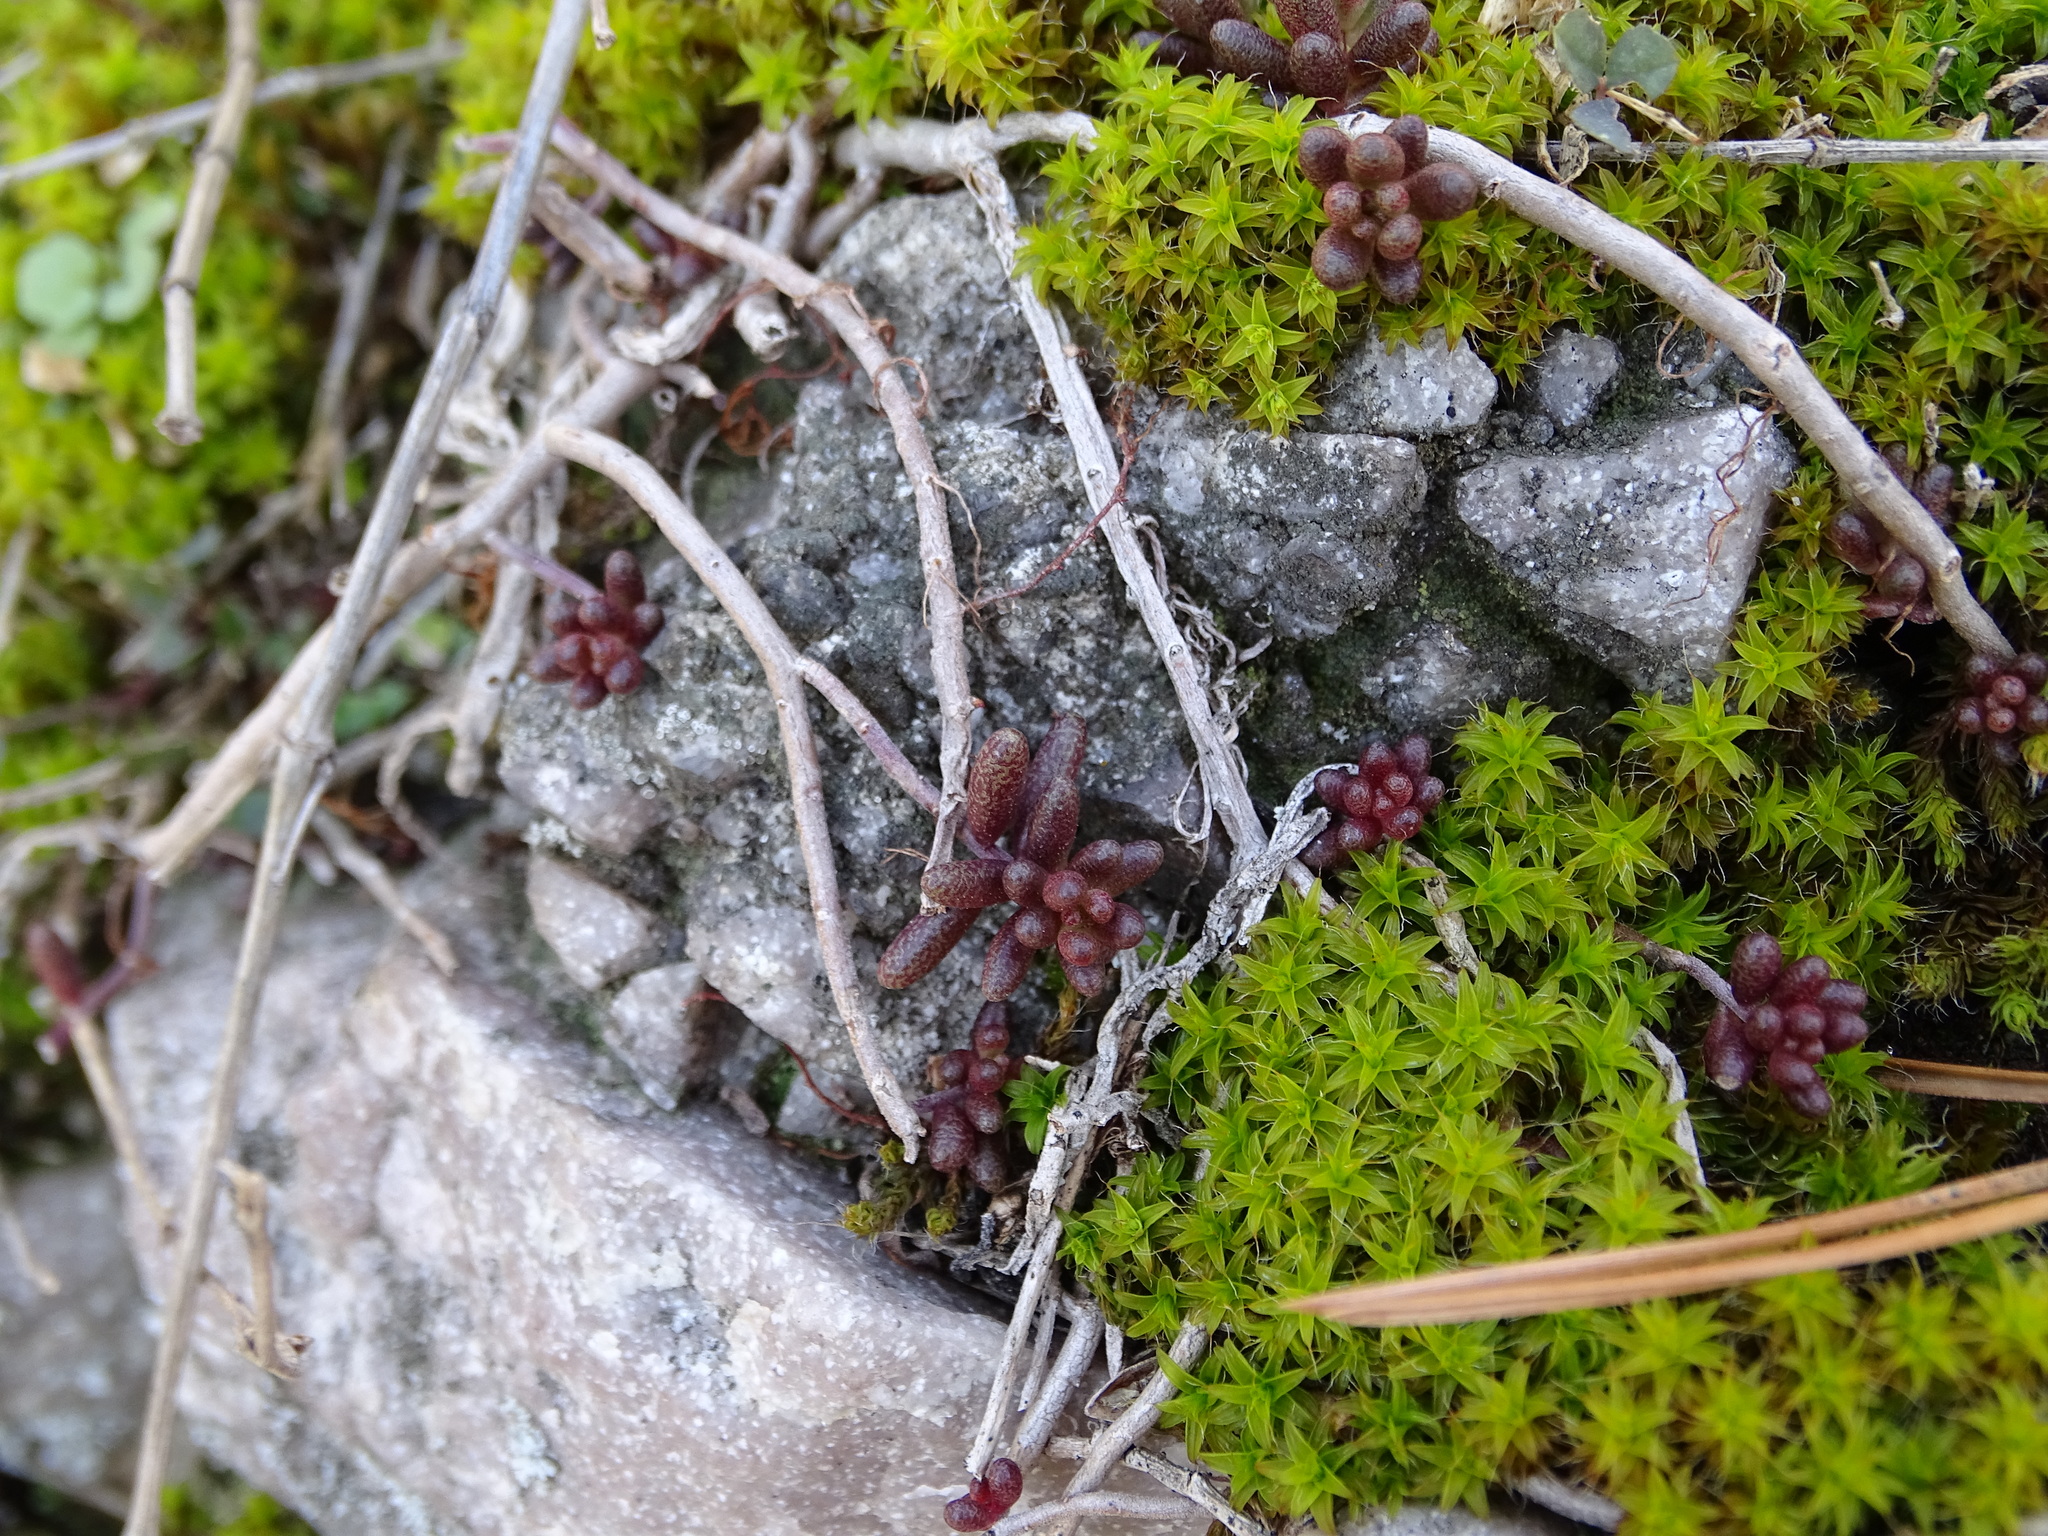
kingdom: Plantae
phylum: Tracheophyta
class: Magnoliopsida
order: Saxifragales
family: Crassulaceae
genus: Sedum
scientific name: Sedum album
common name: White stonecrop
